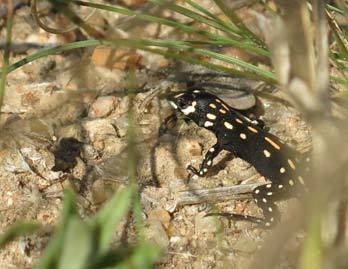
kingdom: Animalia
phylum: Chordata
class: Squamata
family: Lacertidae
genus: Heliobolus
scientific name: Heliobolus lugubris
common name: Bushveld lizard
